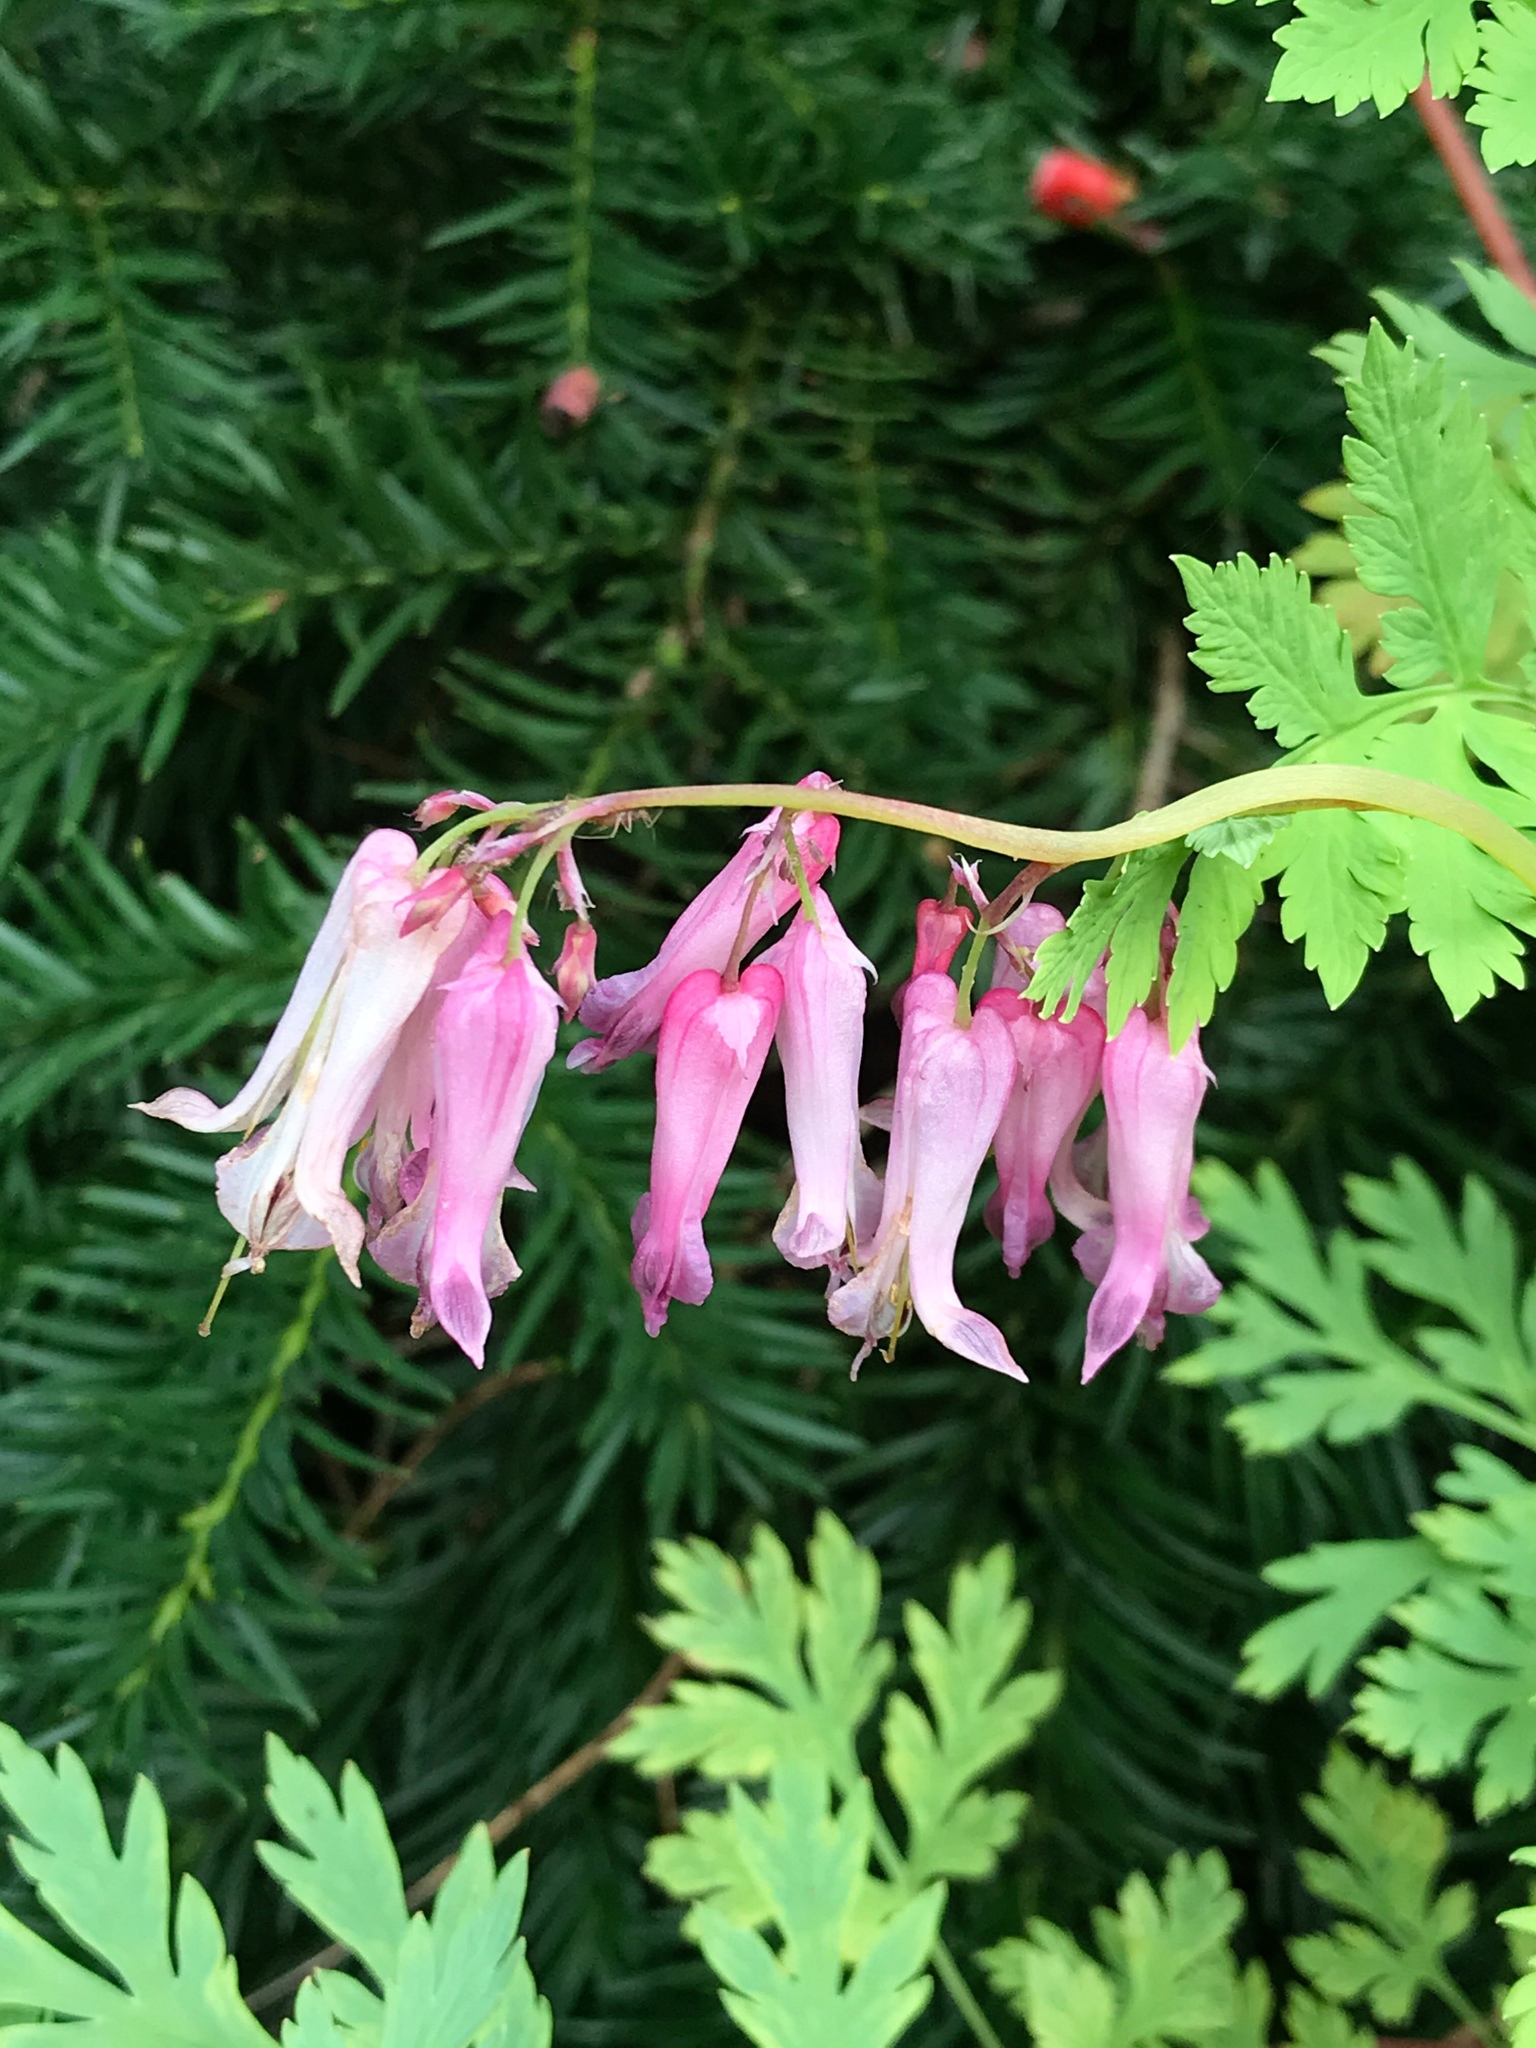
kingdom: Plantae
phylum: Tracheophyta
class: Magnoliopsida
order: Ranunculales
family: Papaveraceae
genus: Dicentra
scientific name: Dicentra eximia
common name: Turkey-corn
